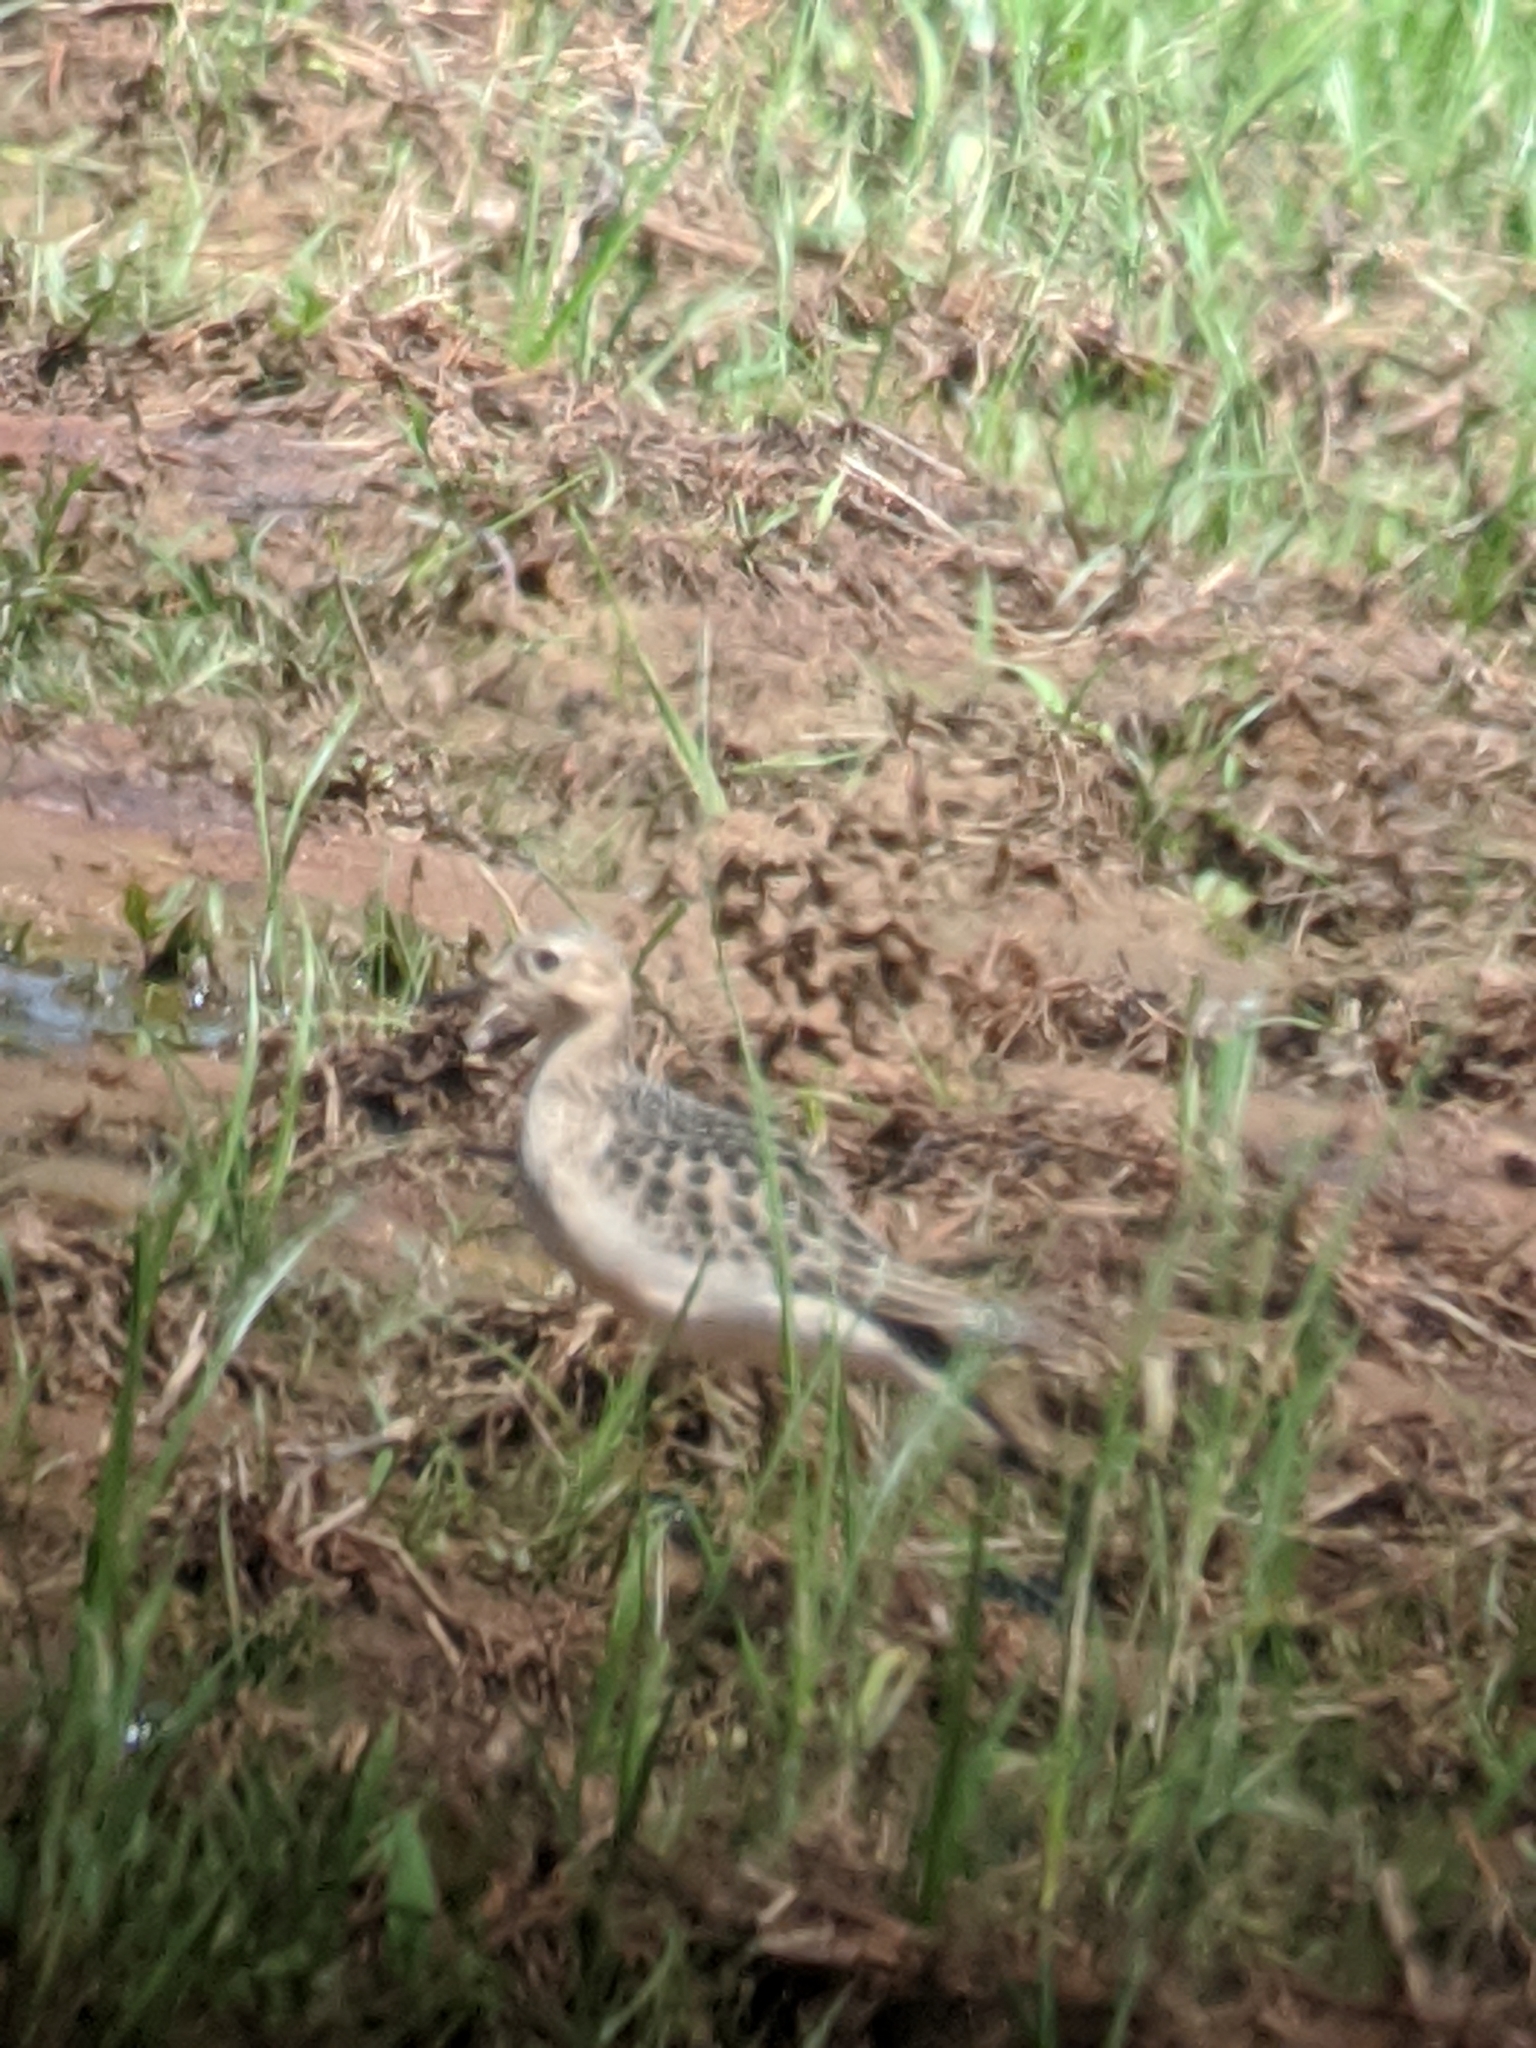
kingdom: Animalia
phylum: Chordata
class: Aves
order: Charadriiformes
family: Scolopacidae
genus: Calidris
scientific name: Calidris subruficollis
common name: Buff-breasted sandpiper
